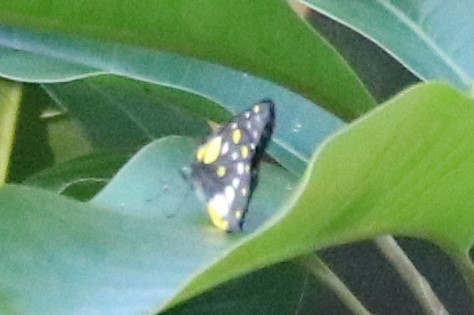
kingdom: Animalia
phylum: Arthropoda
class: Insecta
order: Lepidoptera
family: Pieridae
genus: Delias
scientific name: Delias belladonna
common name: Hill jezebel
